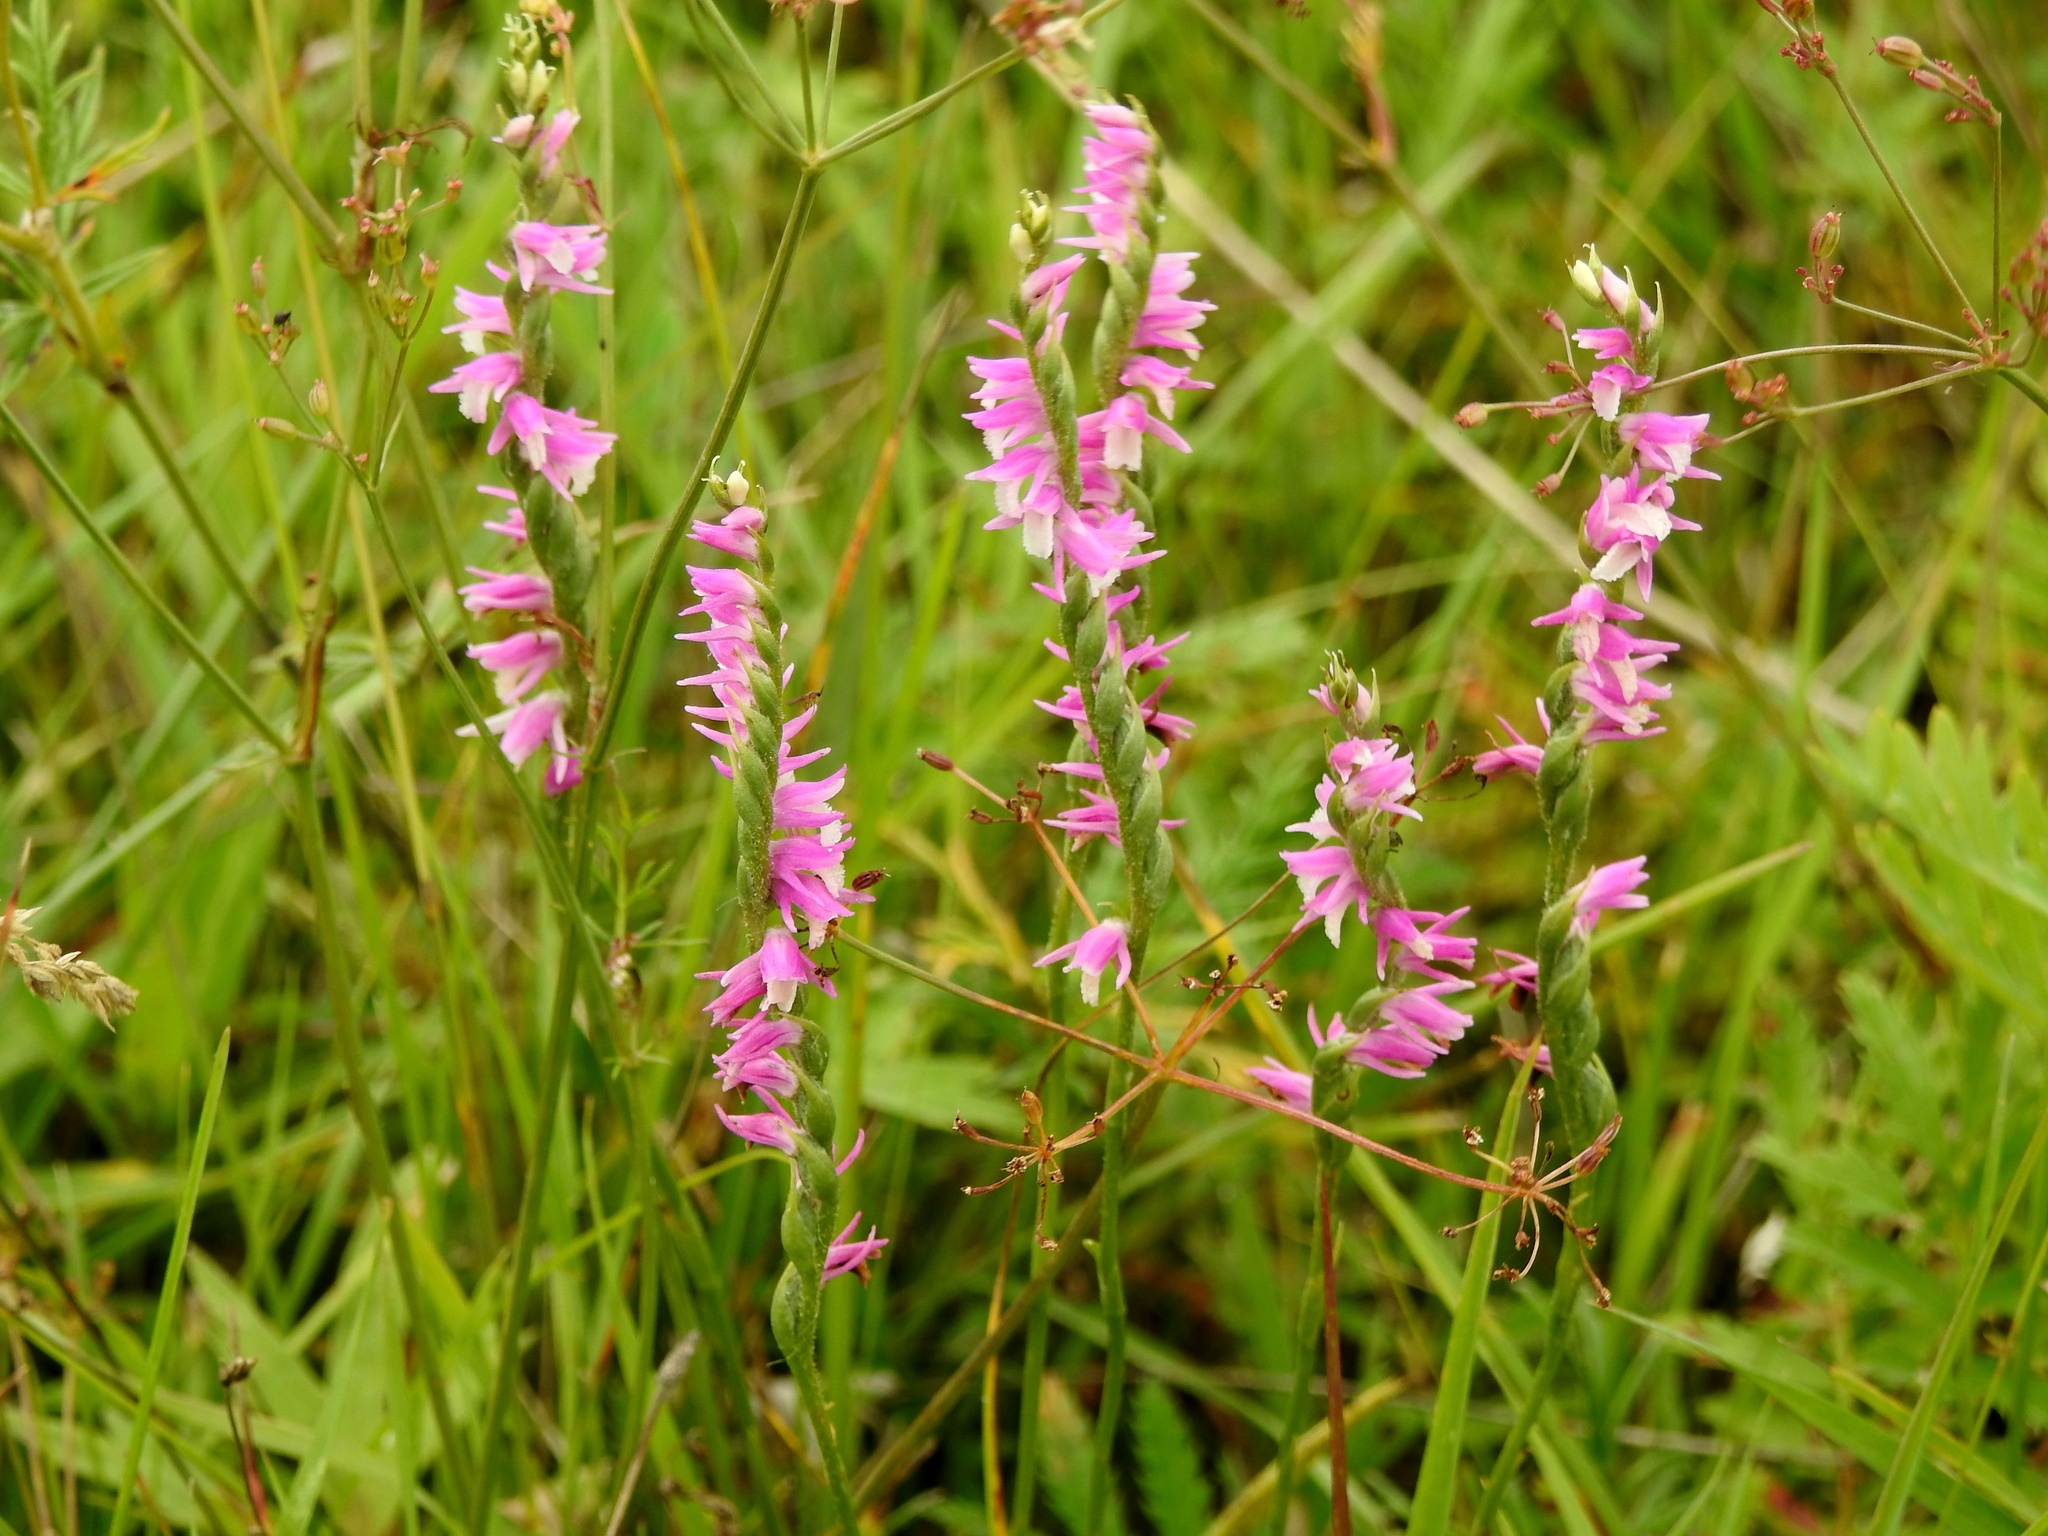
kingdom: Plantae
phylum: Tracheophyta
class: Liliopsida
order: Asparagales
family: Orchidaceae
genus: Spiranthes
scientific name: Spiranthes australis
